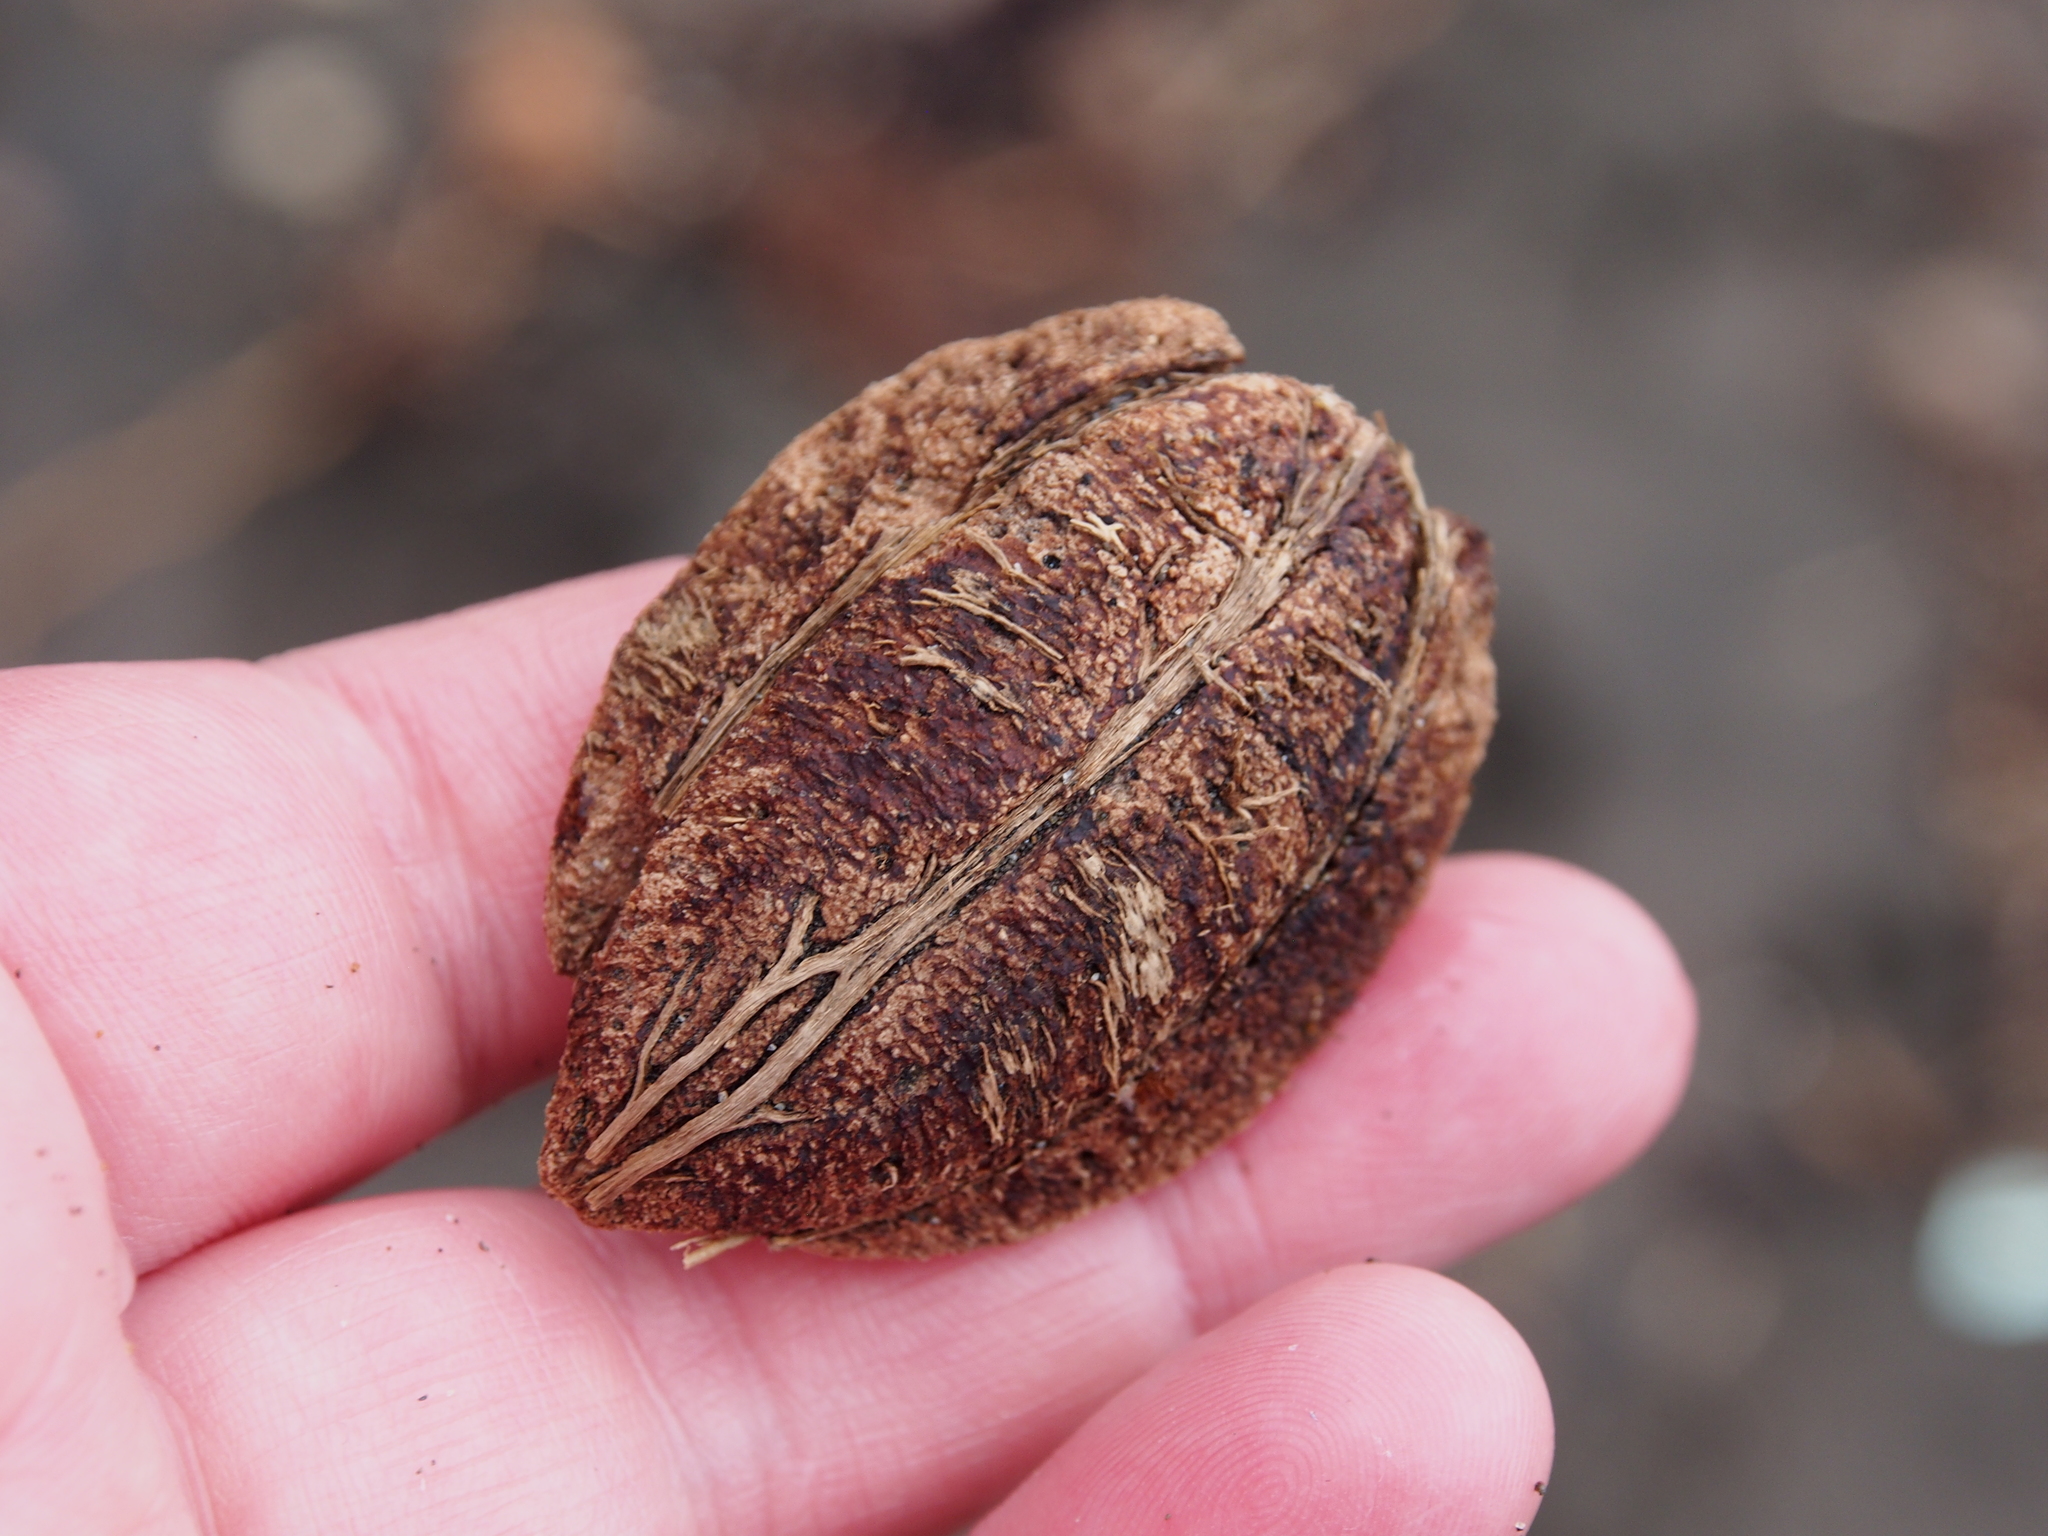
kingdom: Plantae
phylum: Tracheophyta
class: Magnoliopsida
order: Myrtales
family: Combretaceae
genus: Terminalia
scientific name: Terminalia catappa
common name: Tropical almond
